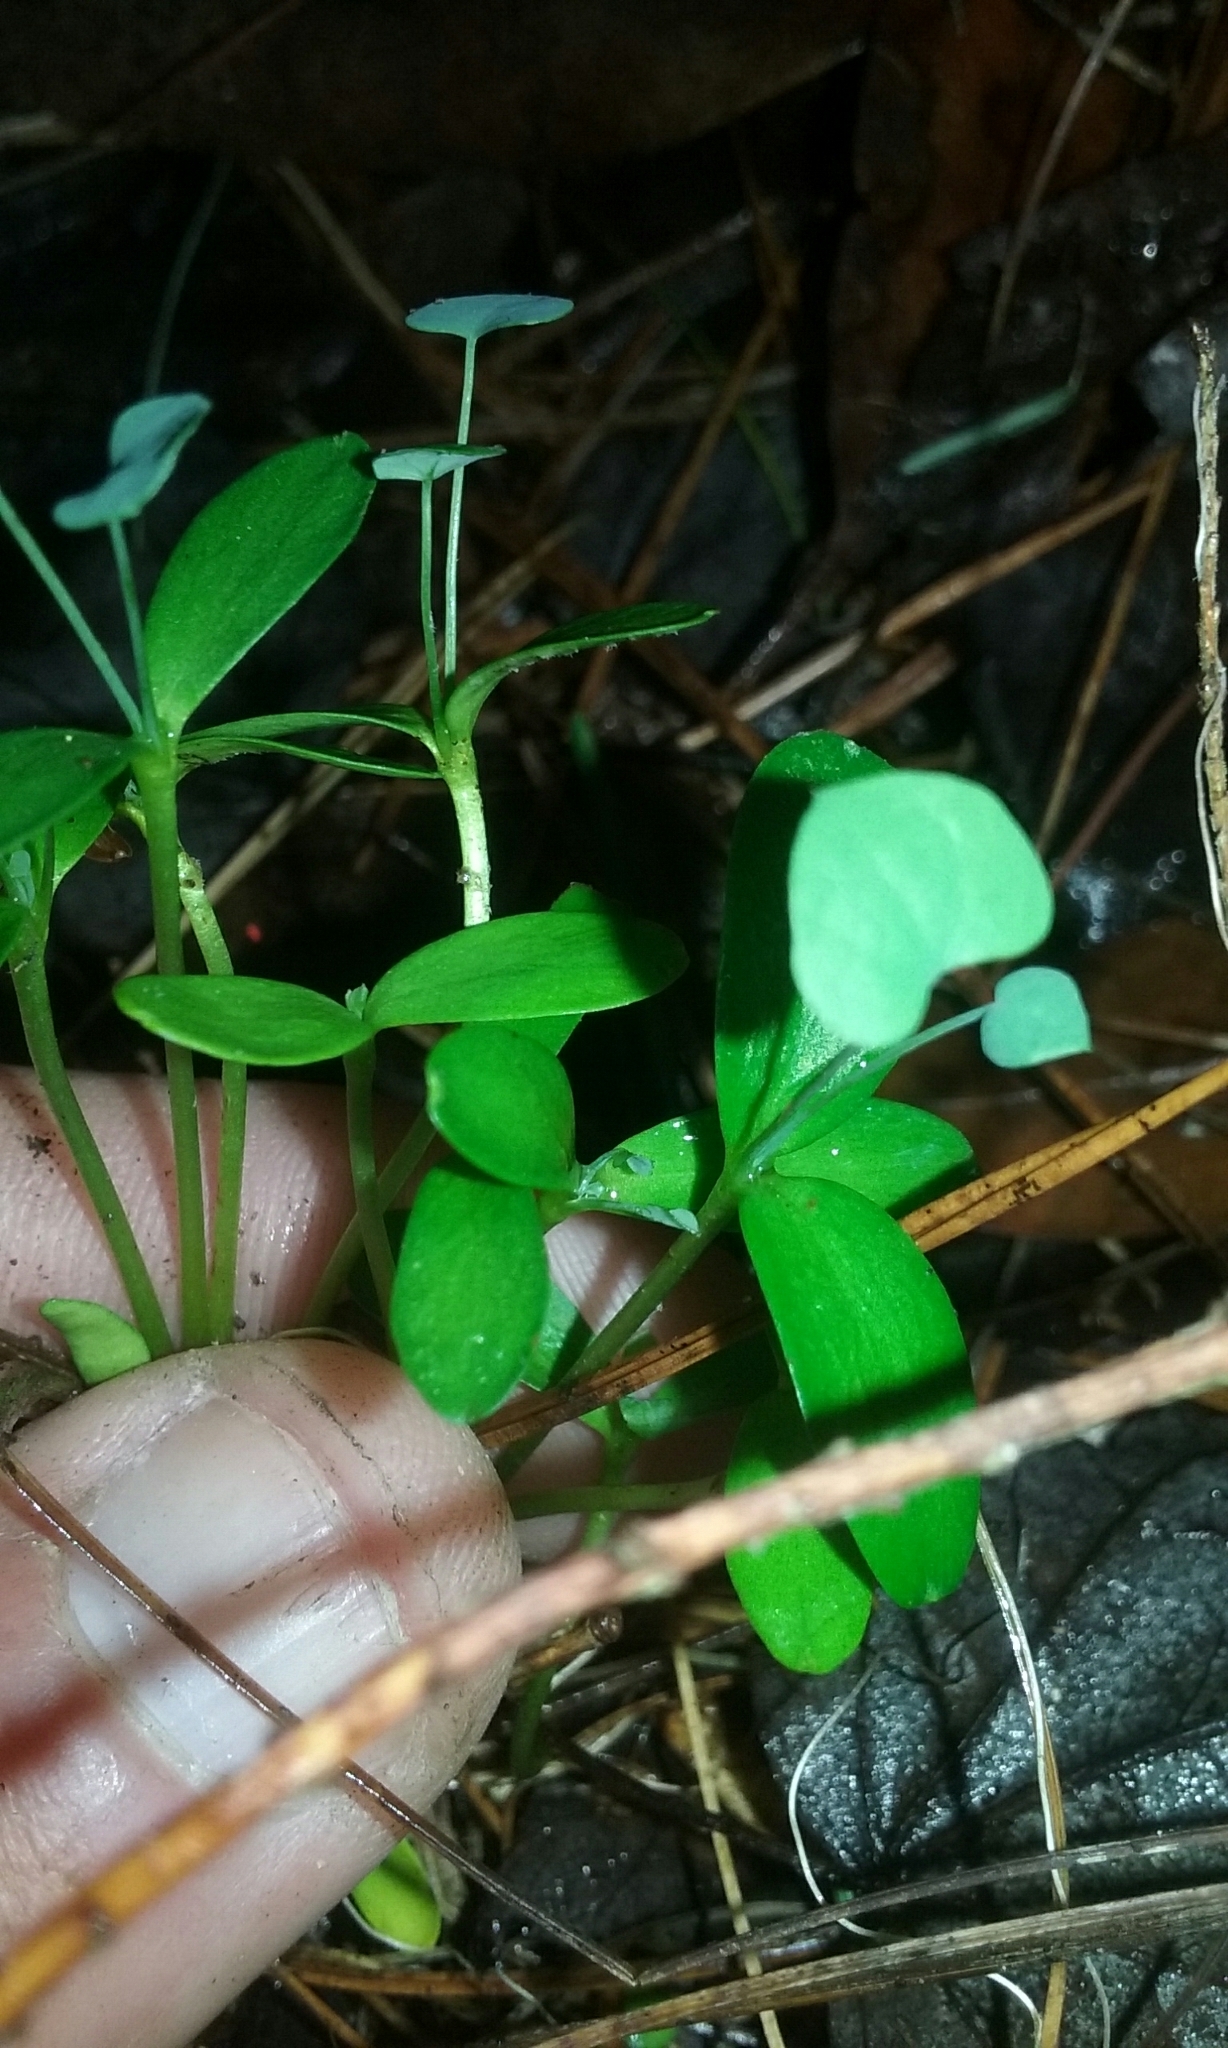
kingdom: Plantae
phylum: Tracheophyta
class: Magnoliopsida
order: Ranunculales
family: Berberidaceae
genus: Berberis
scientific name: Berberis thunbergii
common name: Japanese barberry
